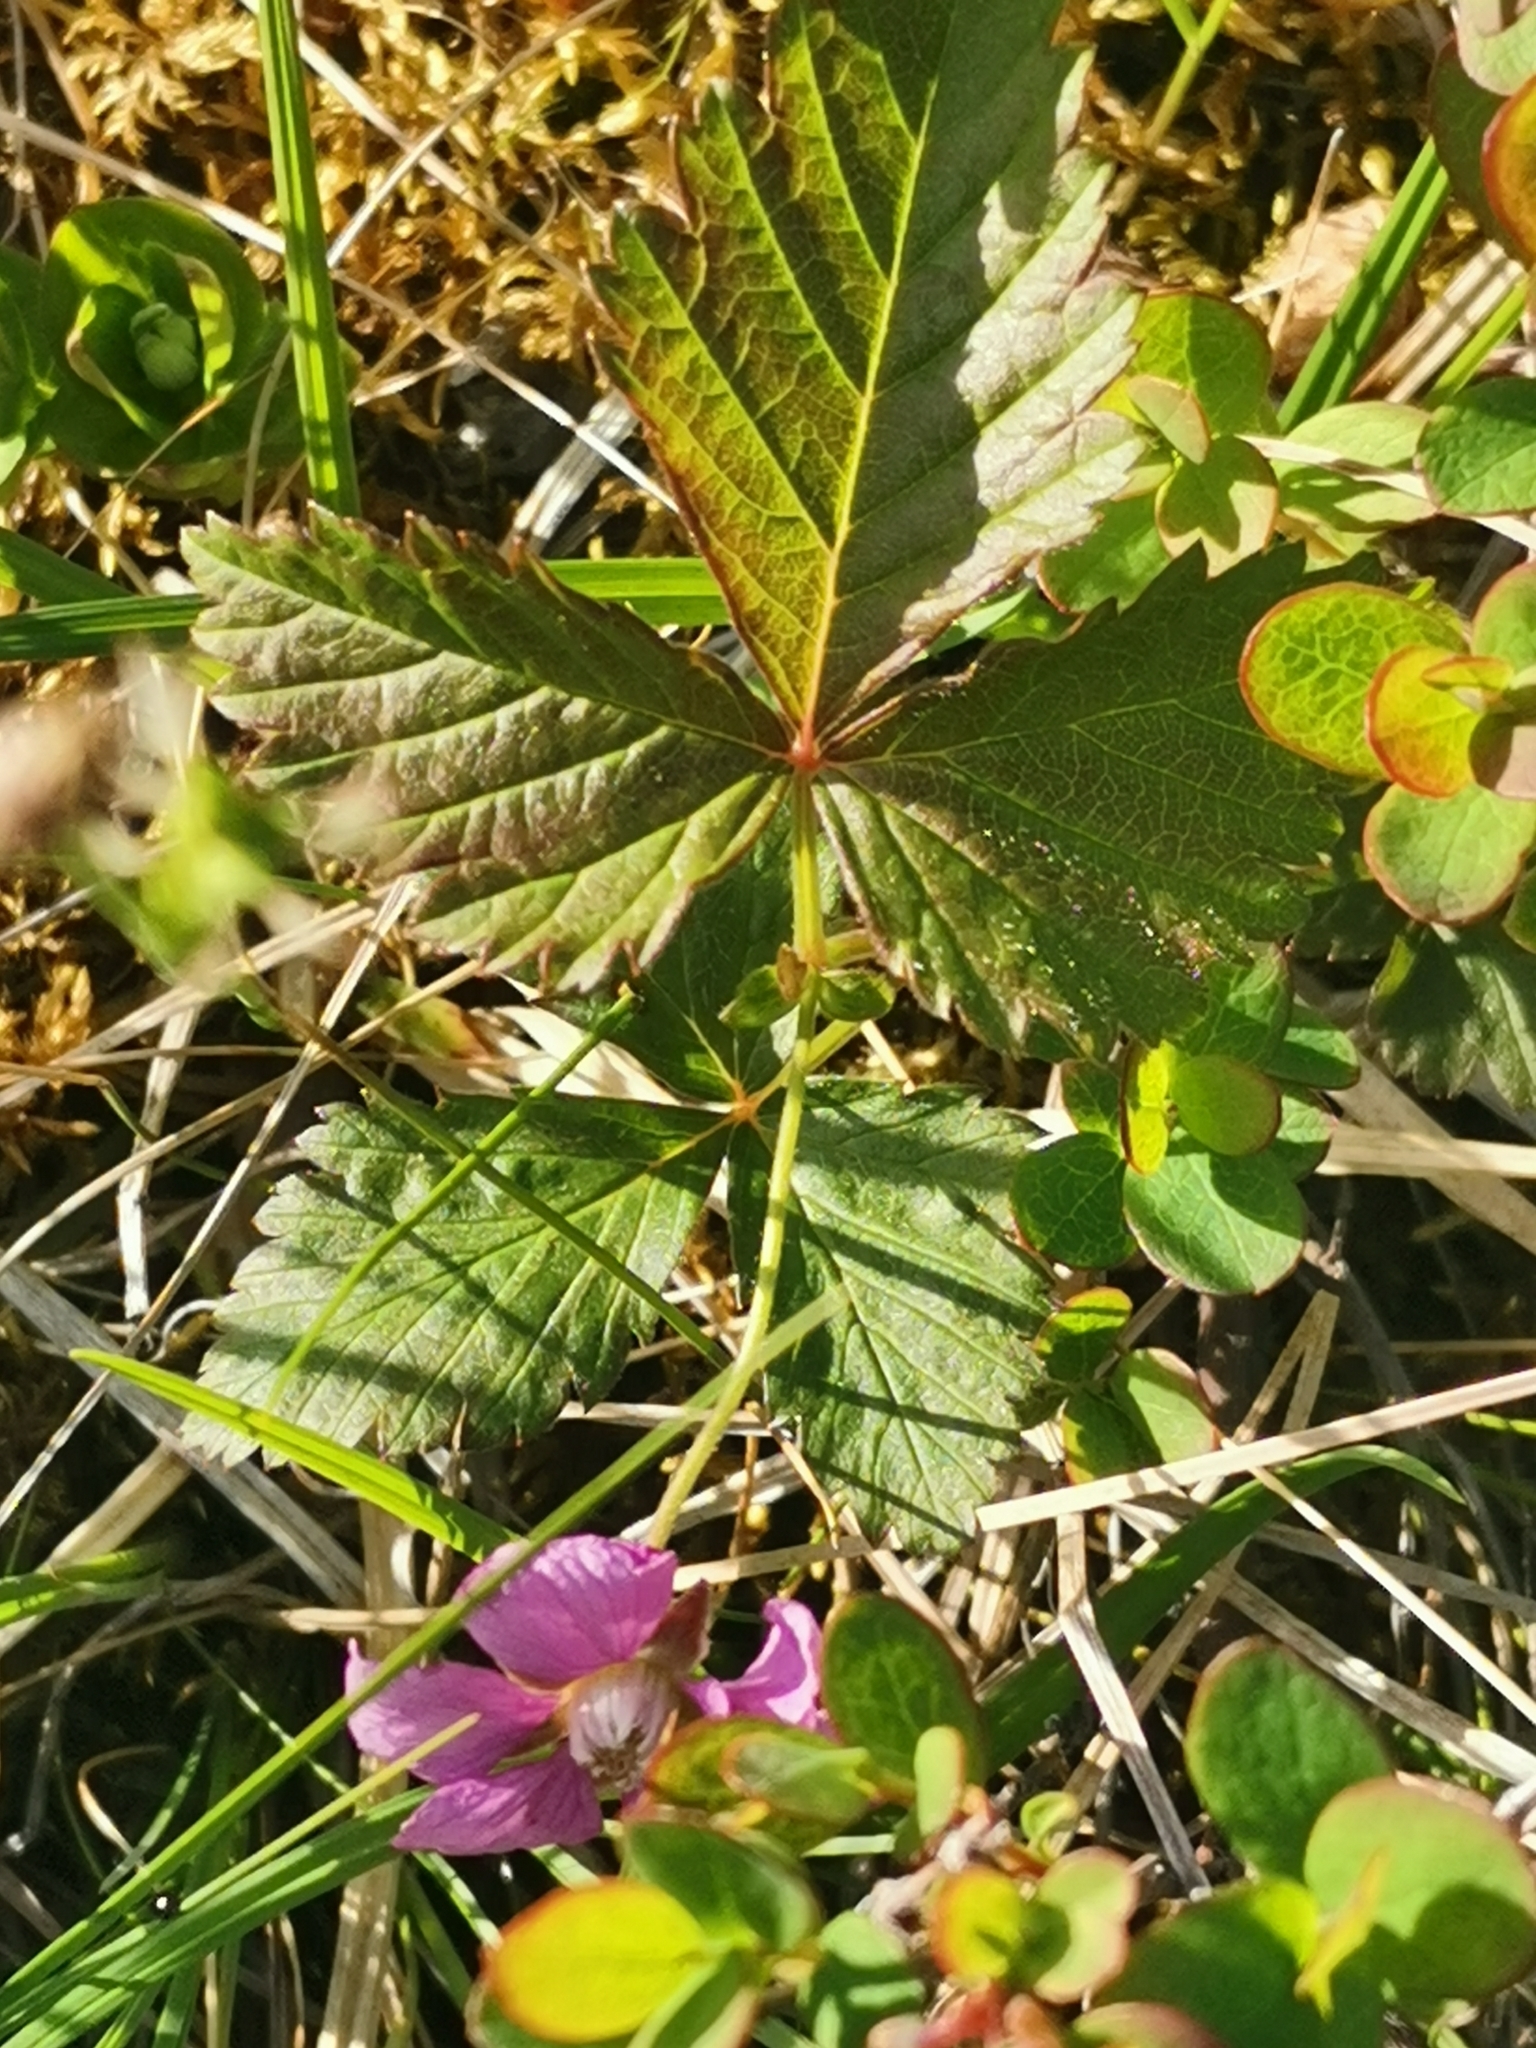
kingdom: Plantae
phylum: Tracheophyta
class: Magnoliopsida
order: Rosales
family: Rosaceae
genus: Rubus
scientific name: Rubus arcticus
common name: Arctic bramble
